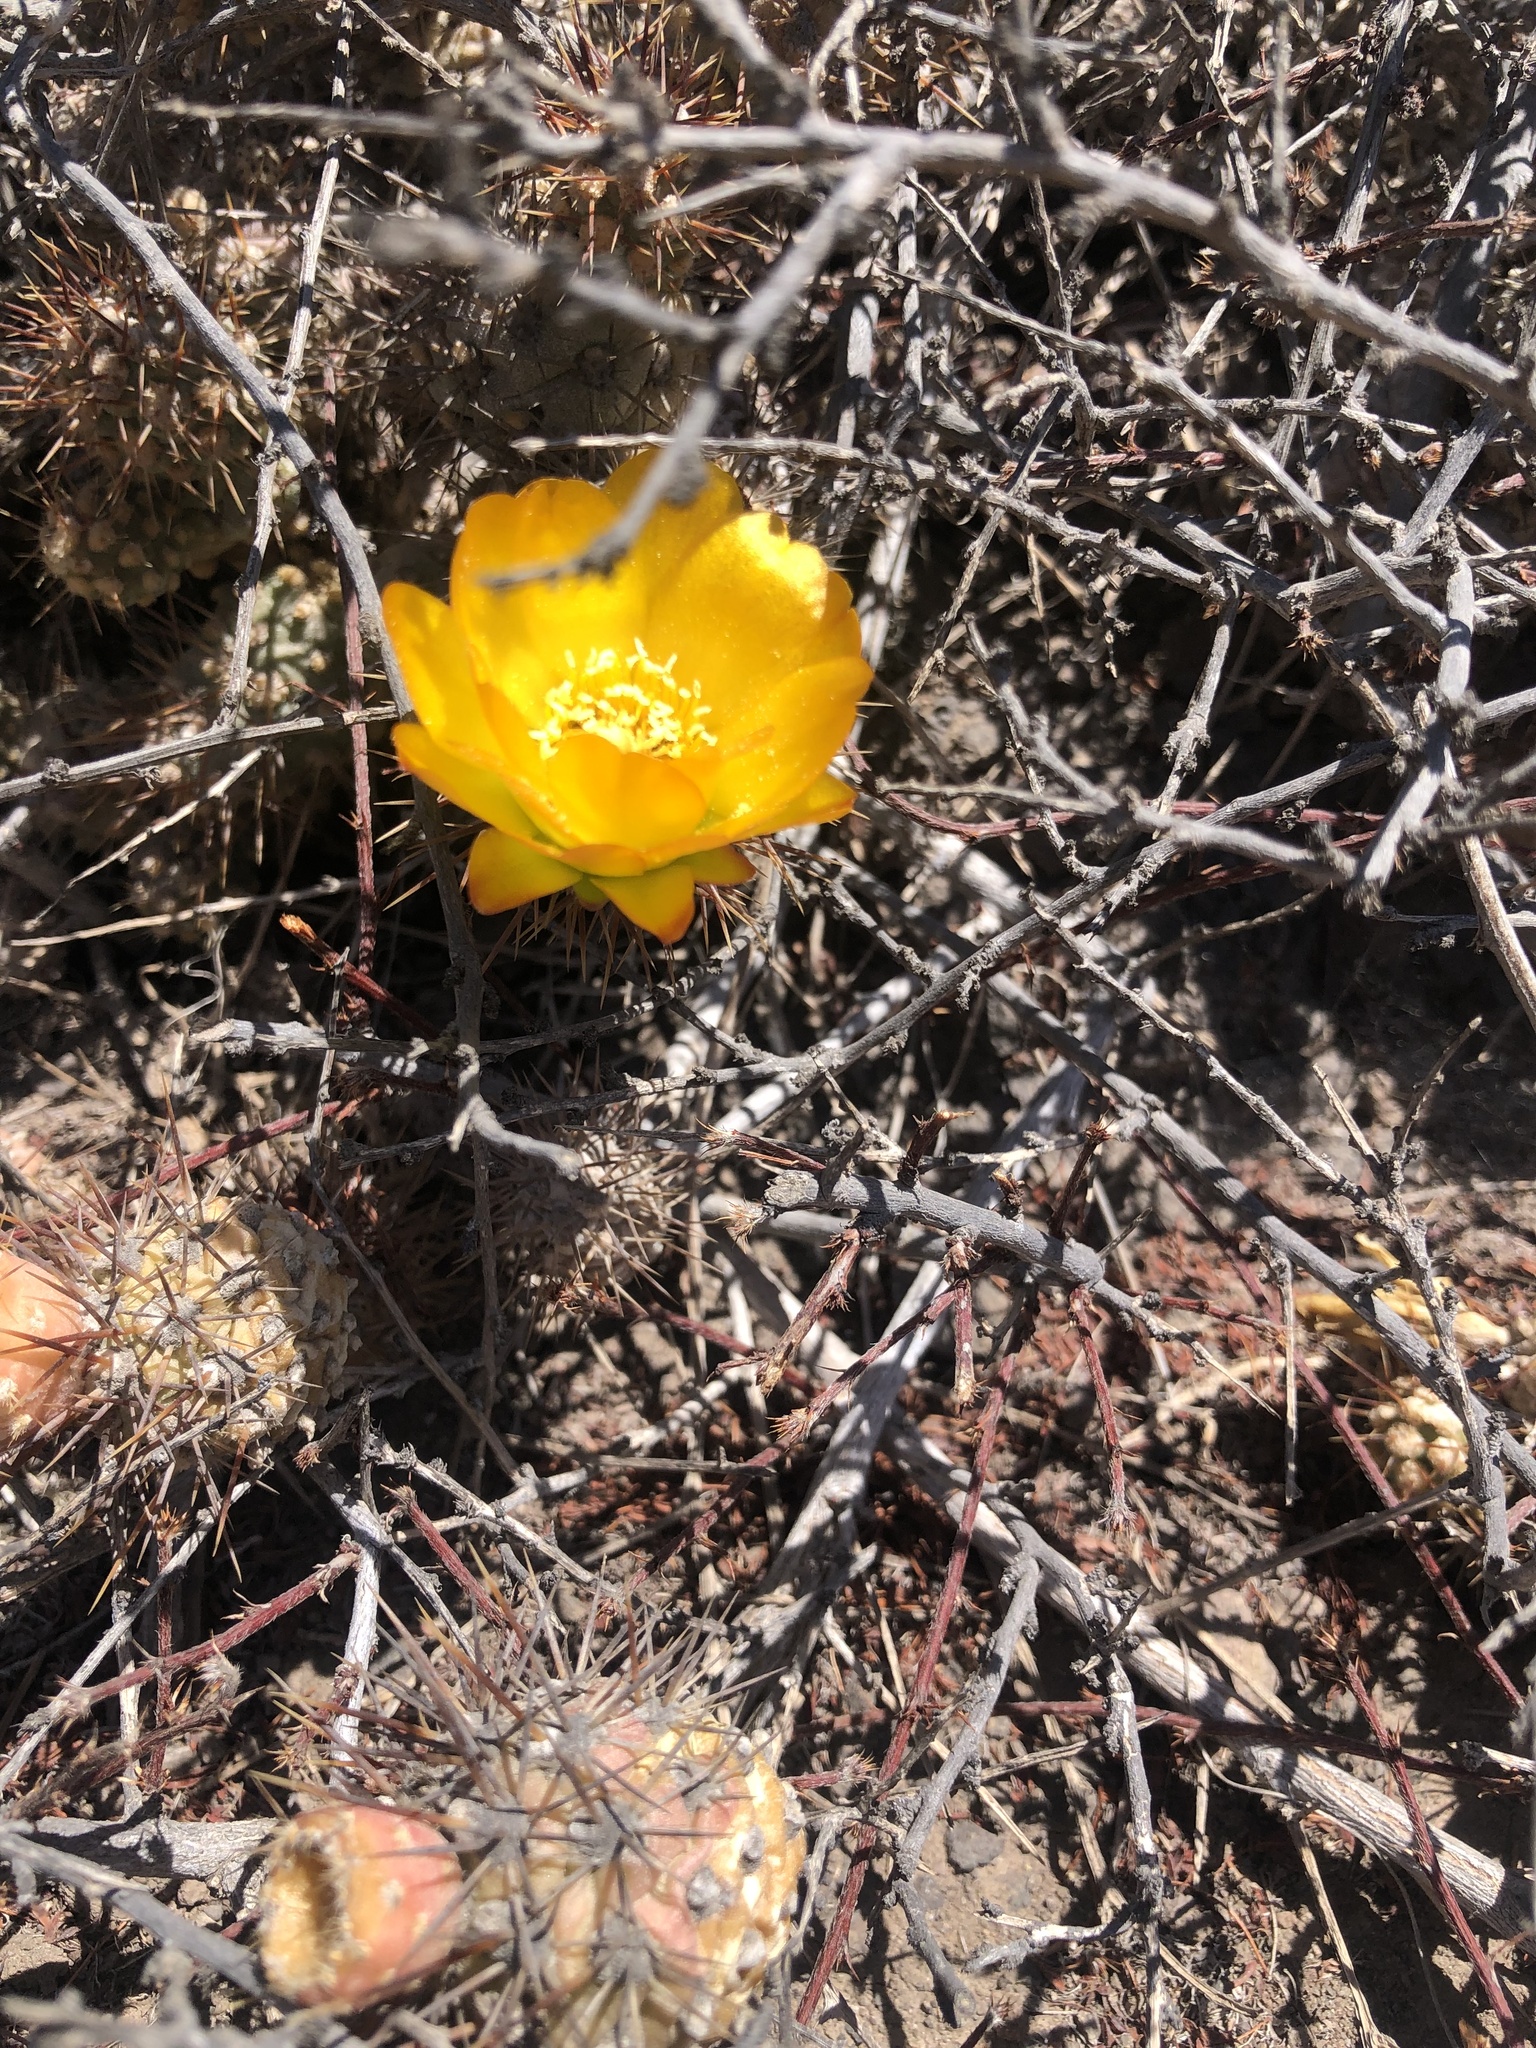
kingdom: Plantae
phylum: Tracheophyta
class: Magnoliopsida
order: Caryophyllales
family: Cactaceae
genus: Cumulopuntia
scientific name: Cumulopuntia leucophaea
